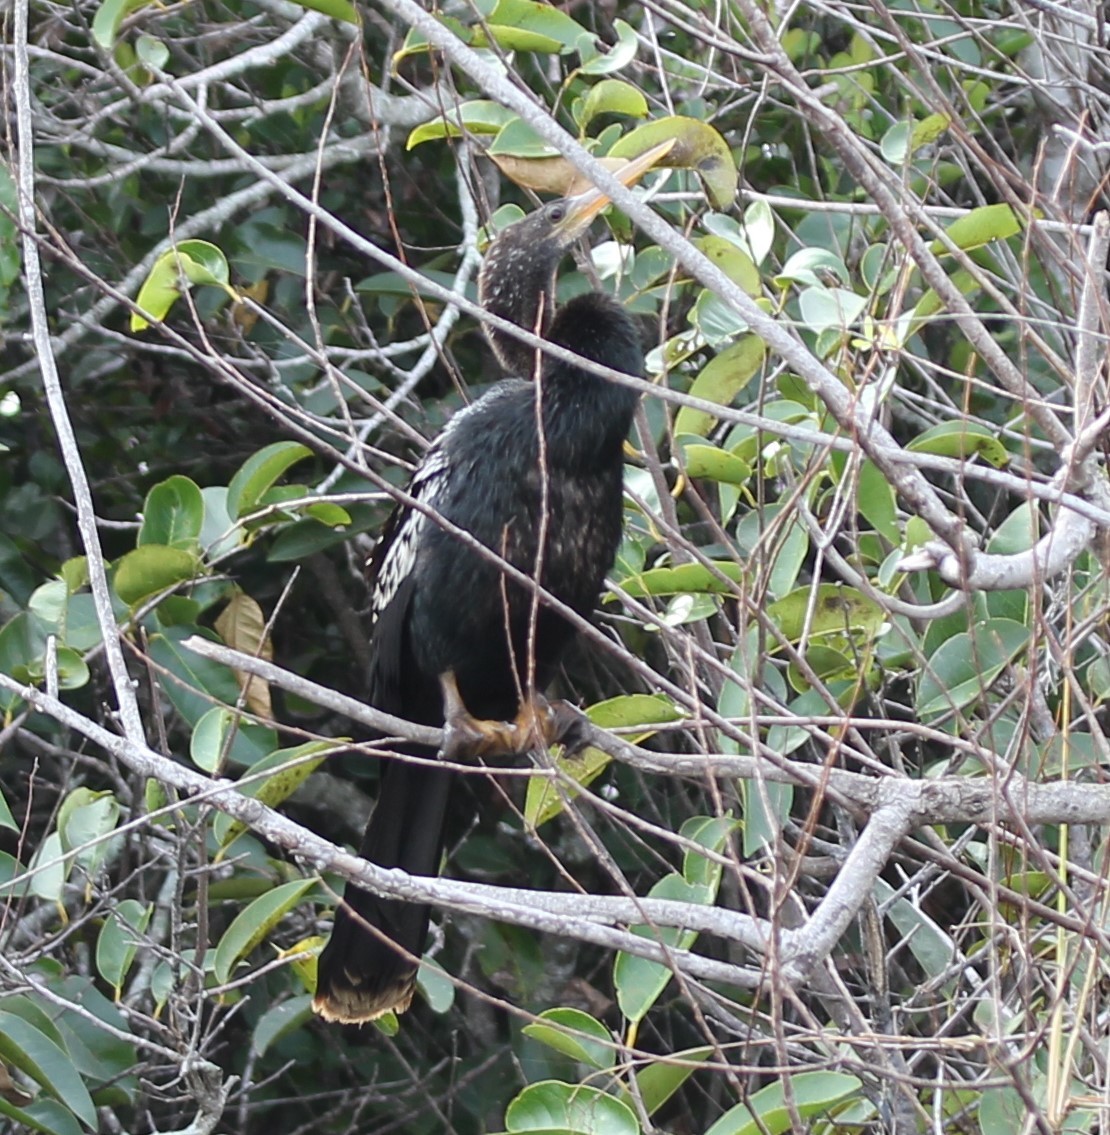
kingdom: Animalia
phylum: Chordata
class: Aves
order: Suliformes
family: Anhingidae
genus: Anhinga
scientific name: Anhinga anhinga
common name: Anhinga
